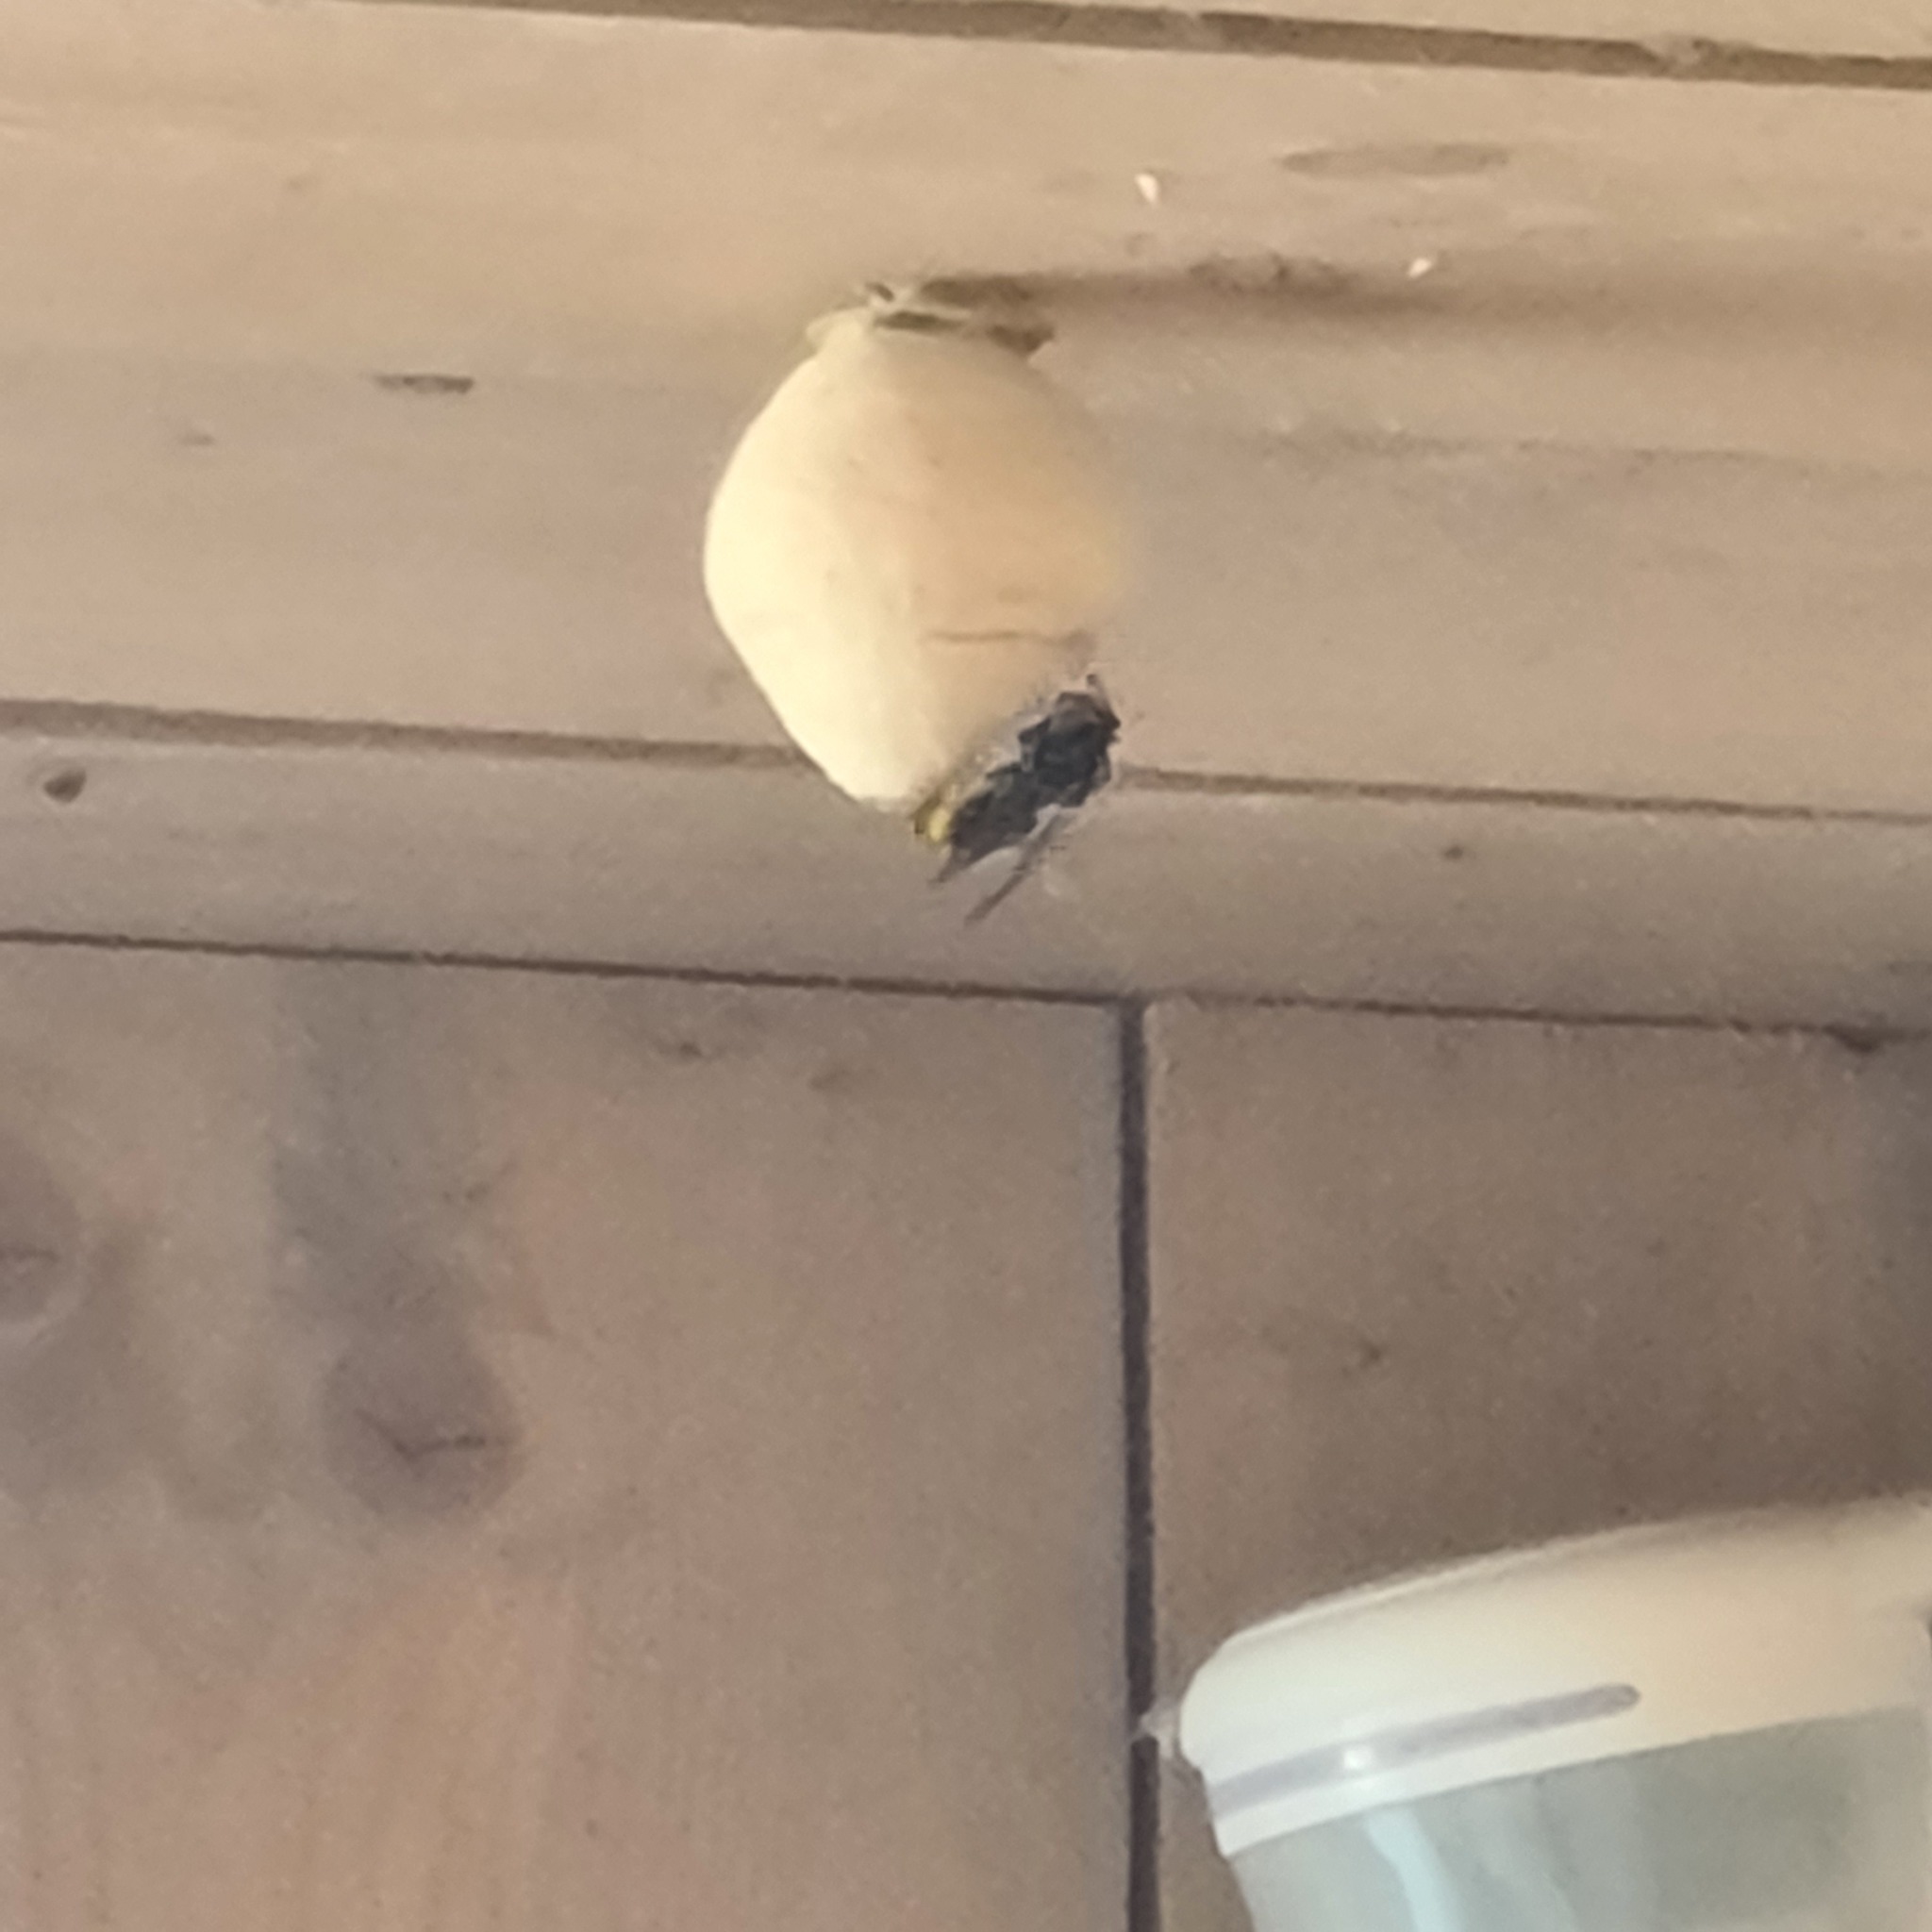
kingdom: Animalia
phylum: Arthropoda
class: Insecta
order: Hymenoptera
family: Vespidae
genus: Vespa
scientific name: Vespa velutina
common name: Asian hornet
